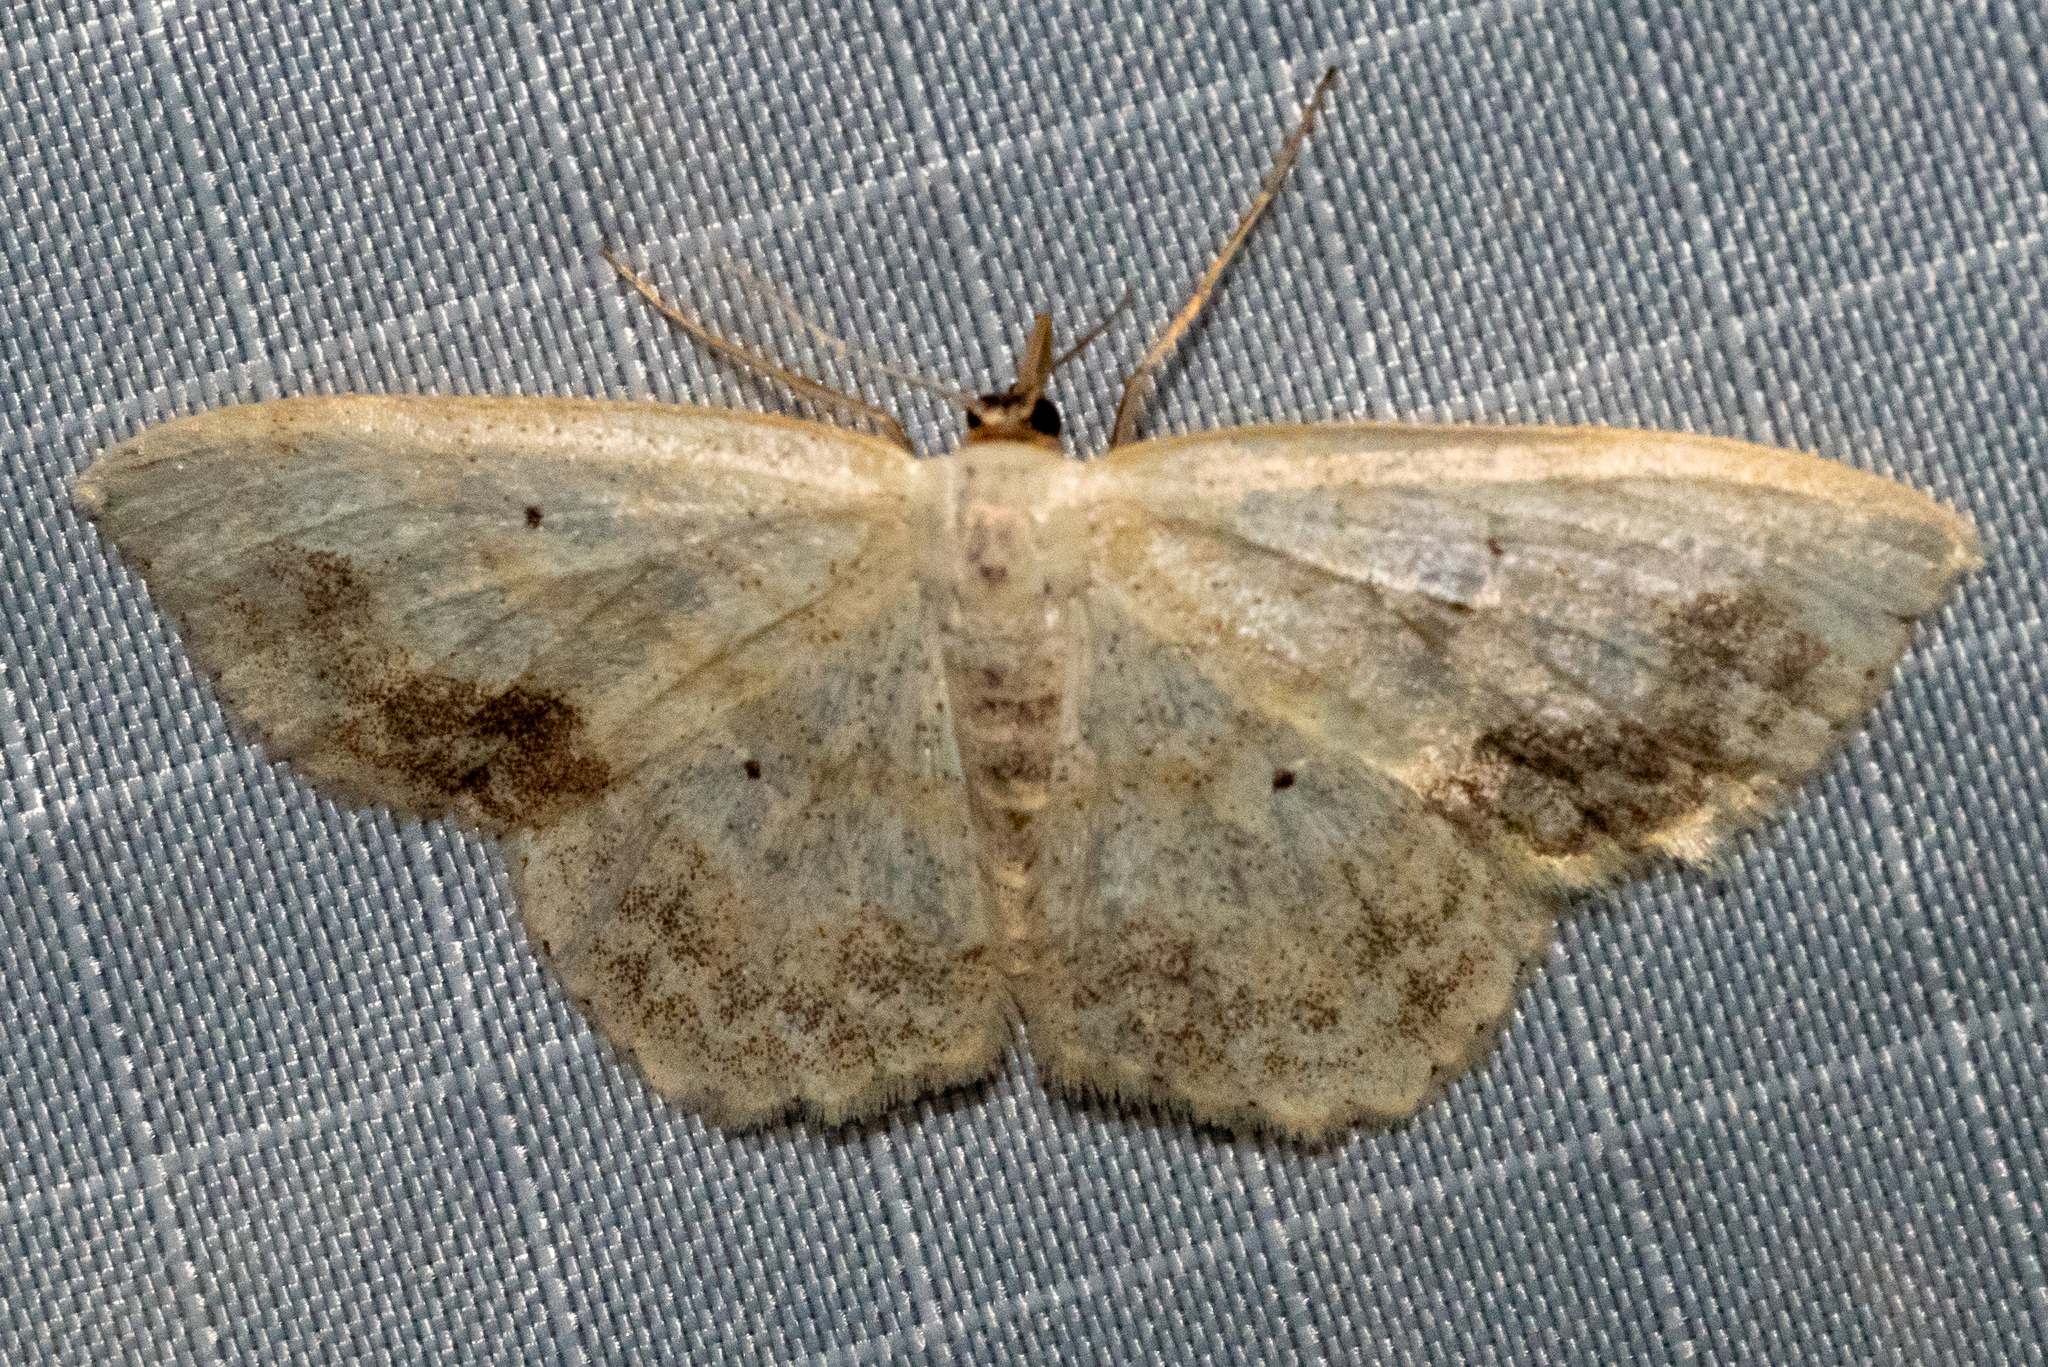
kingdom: Animalia
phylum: Arthropoda
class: Insecta
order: Lepidoptera
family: Geometridae
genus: Scopula
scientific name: Scopula limboundata
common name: Large lace border
